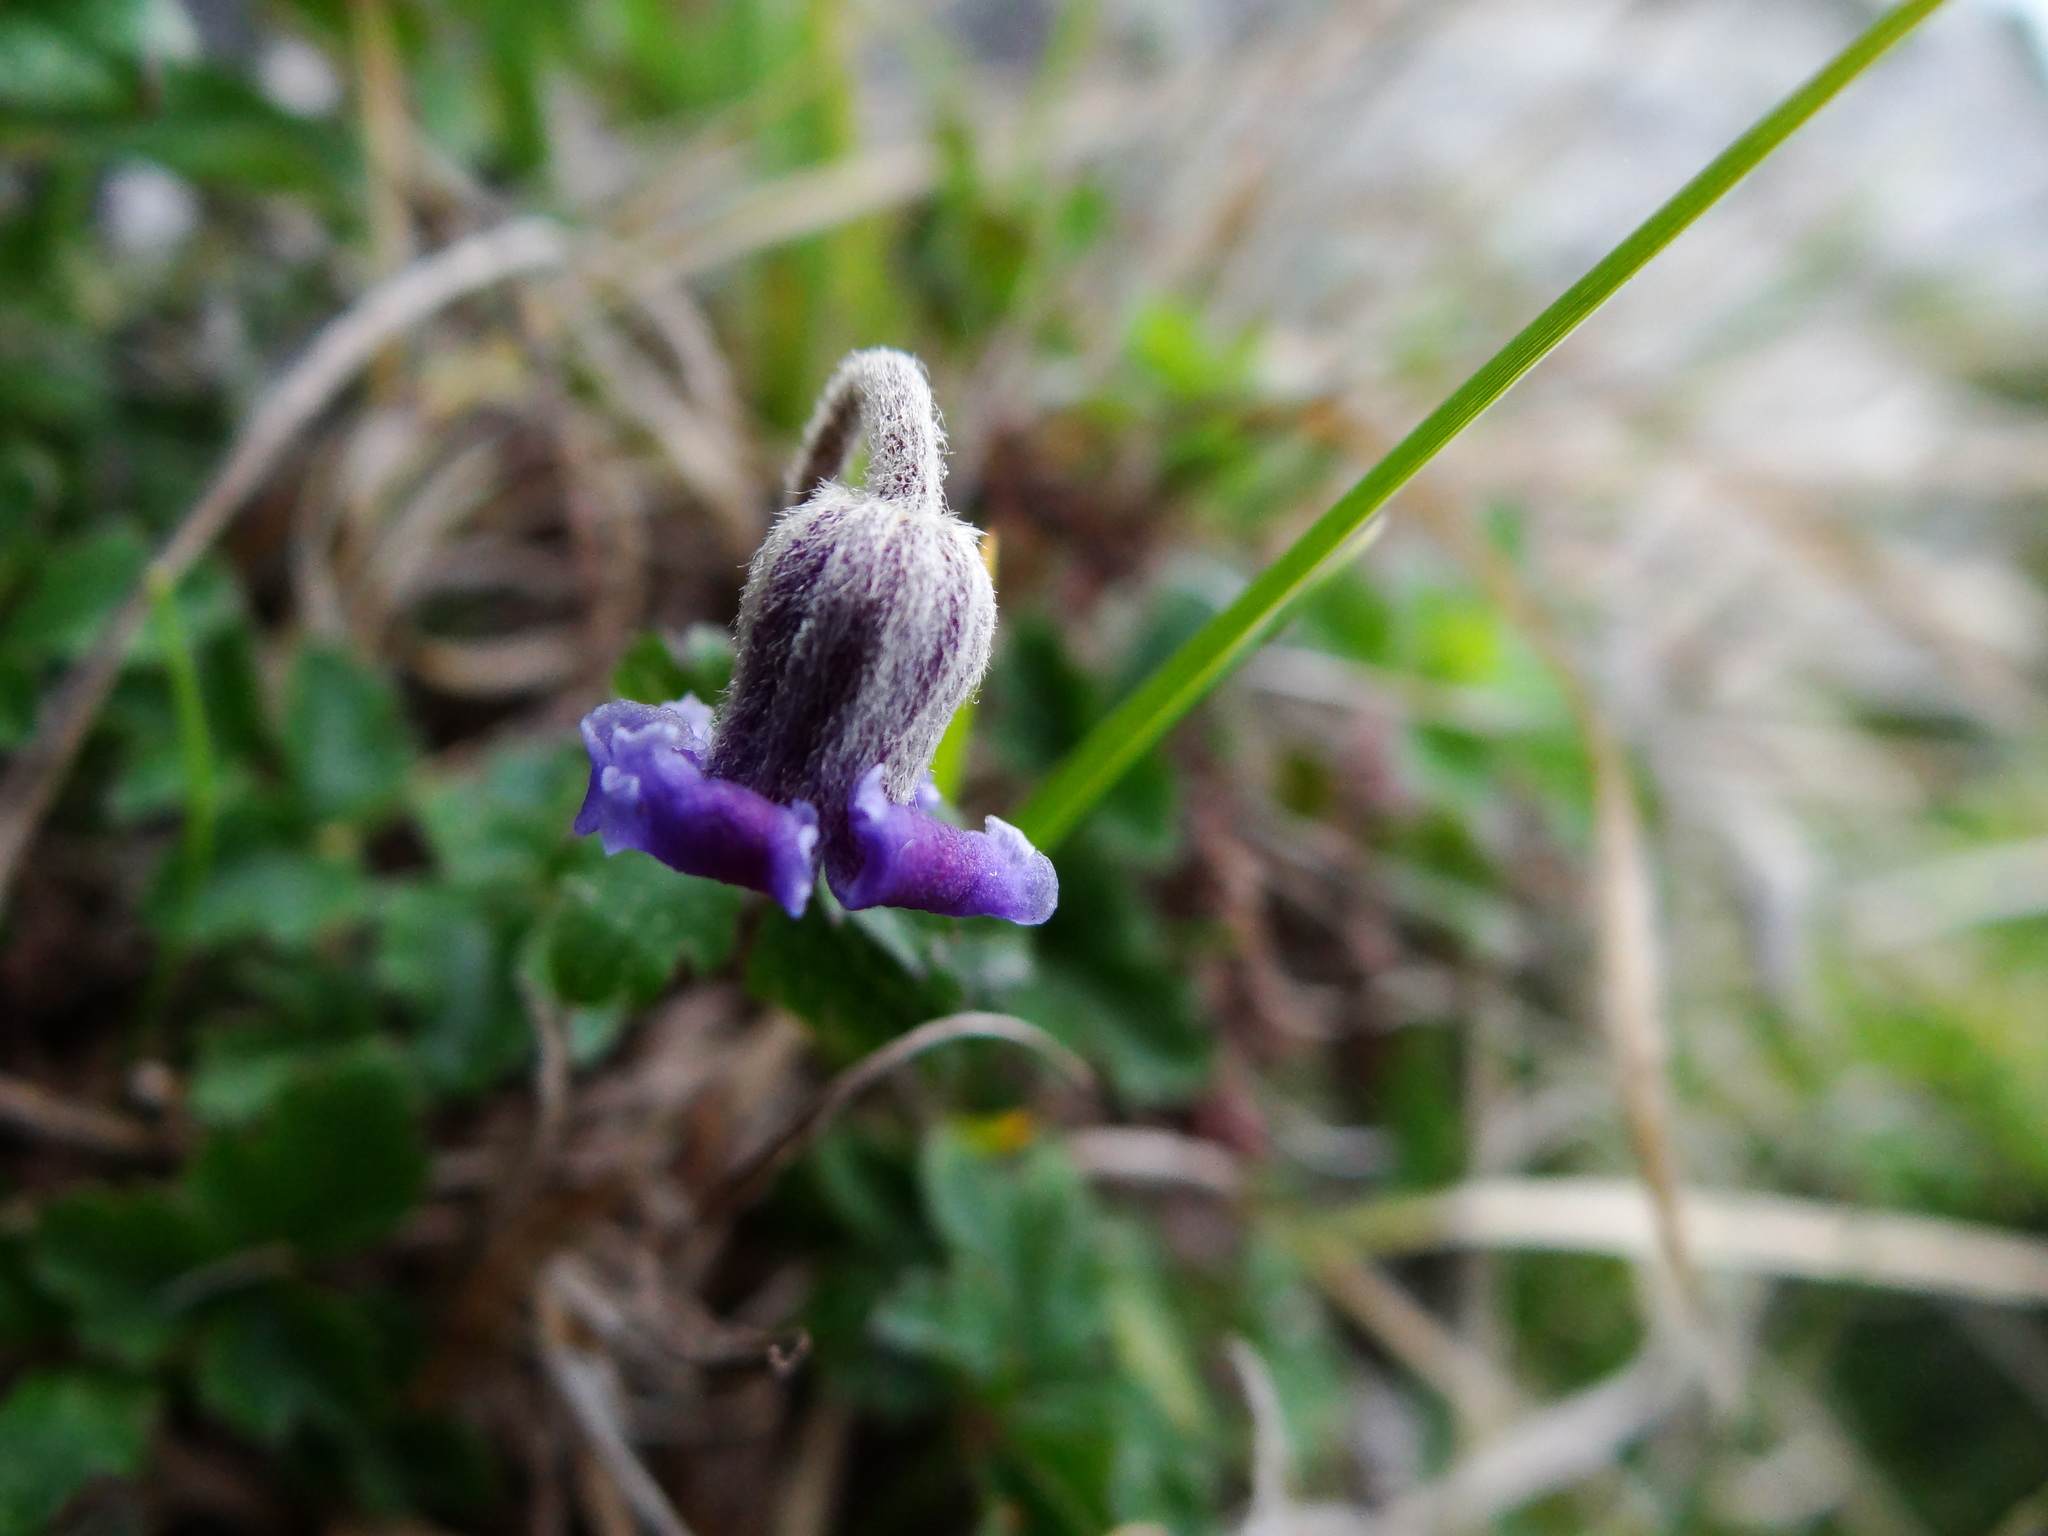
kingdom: Plantae
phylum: Tracheophyta
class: Magnoliopsida
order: Ranunculales
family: Ranunculaceae
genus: Clematis
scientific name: Clematis tsugetorum
